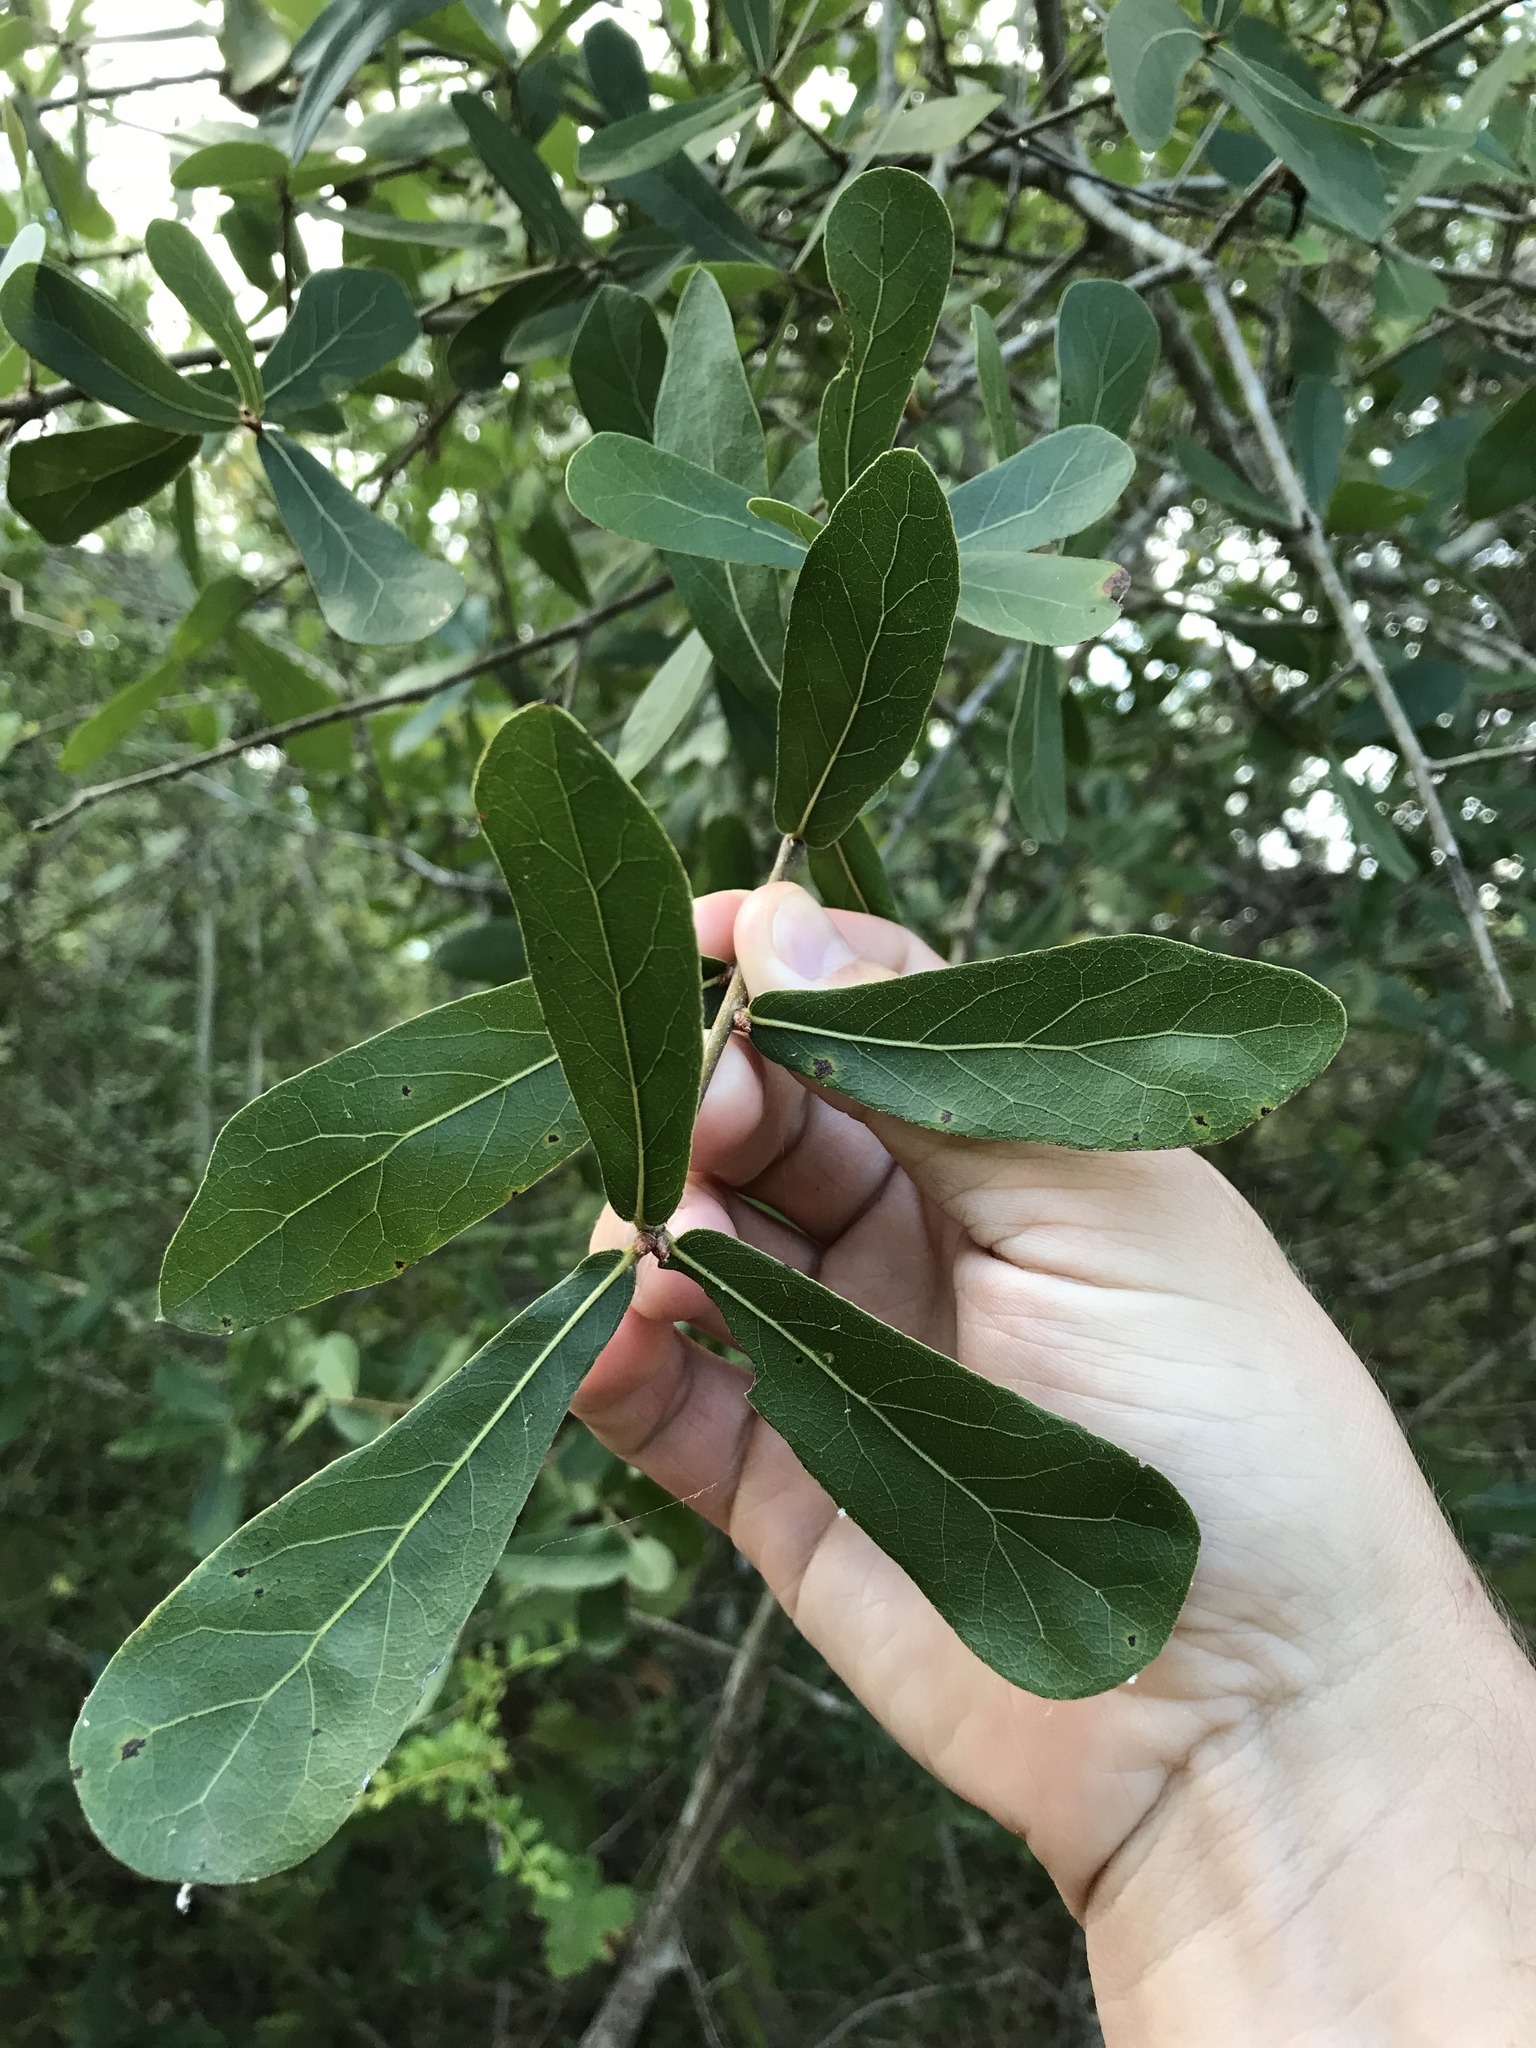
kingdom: Plantae
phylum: Tracheophyta
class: Magnoliopsida
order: Fagales
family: Fagaceae
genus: Quercus
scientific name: Quercus nigra
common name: Water oak
